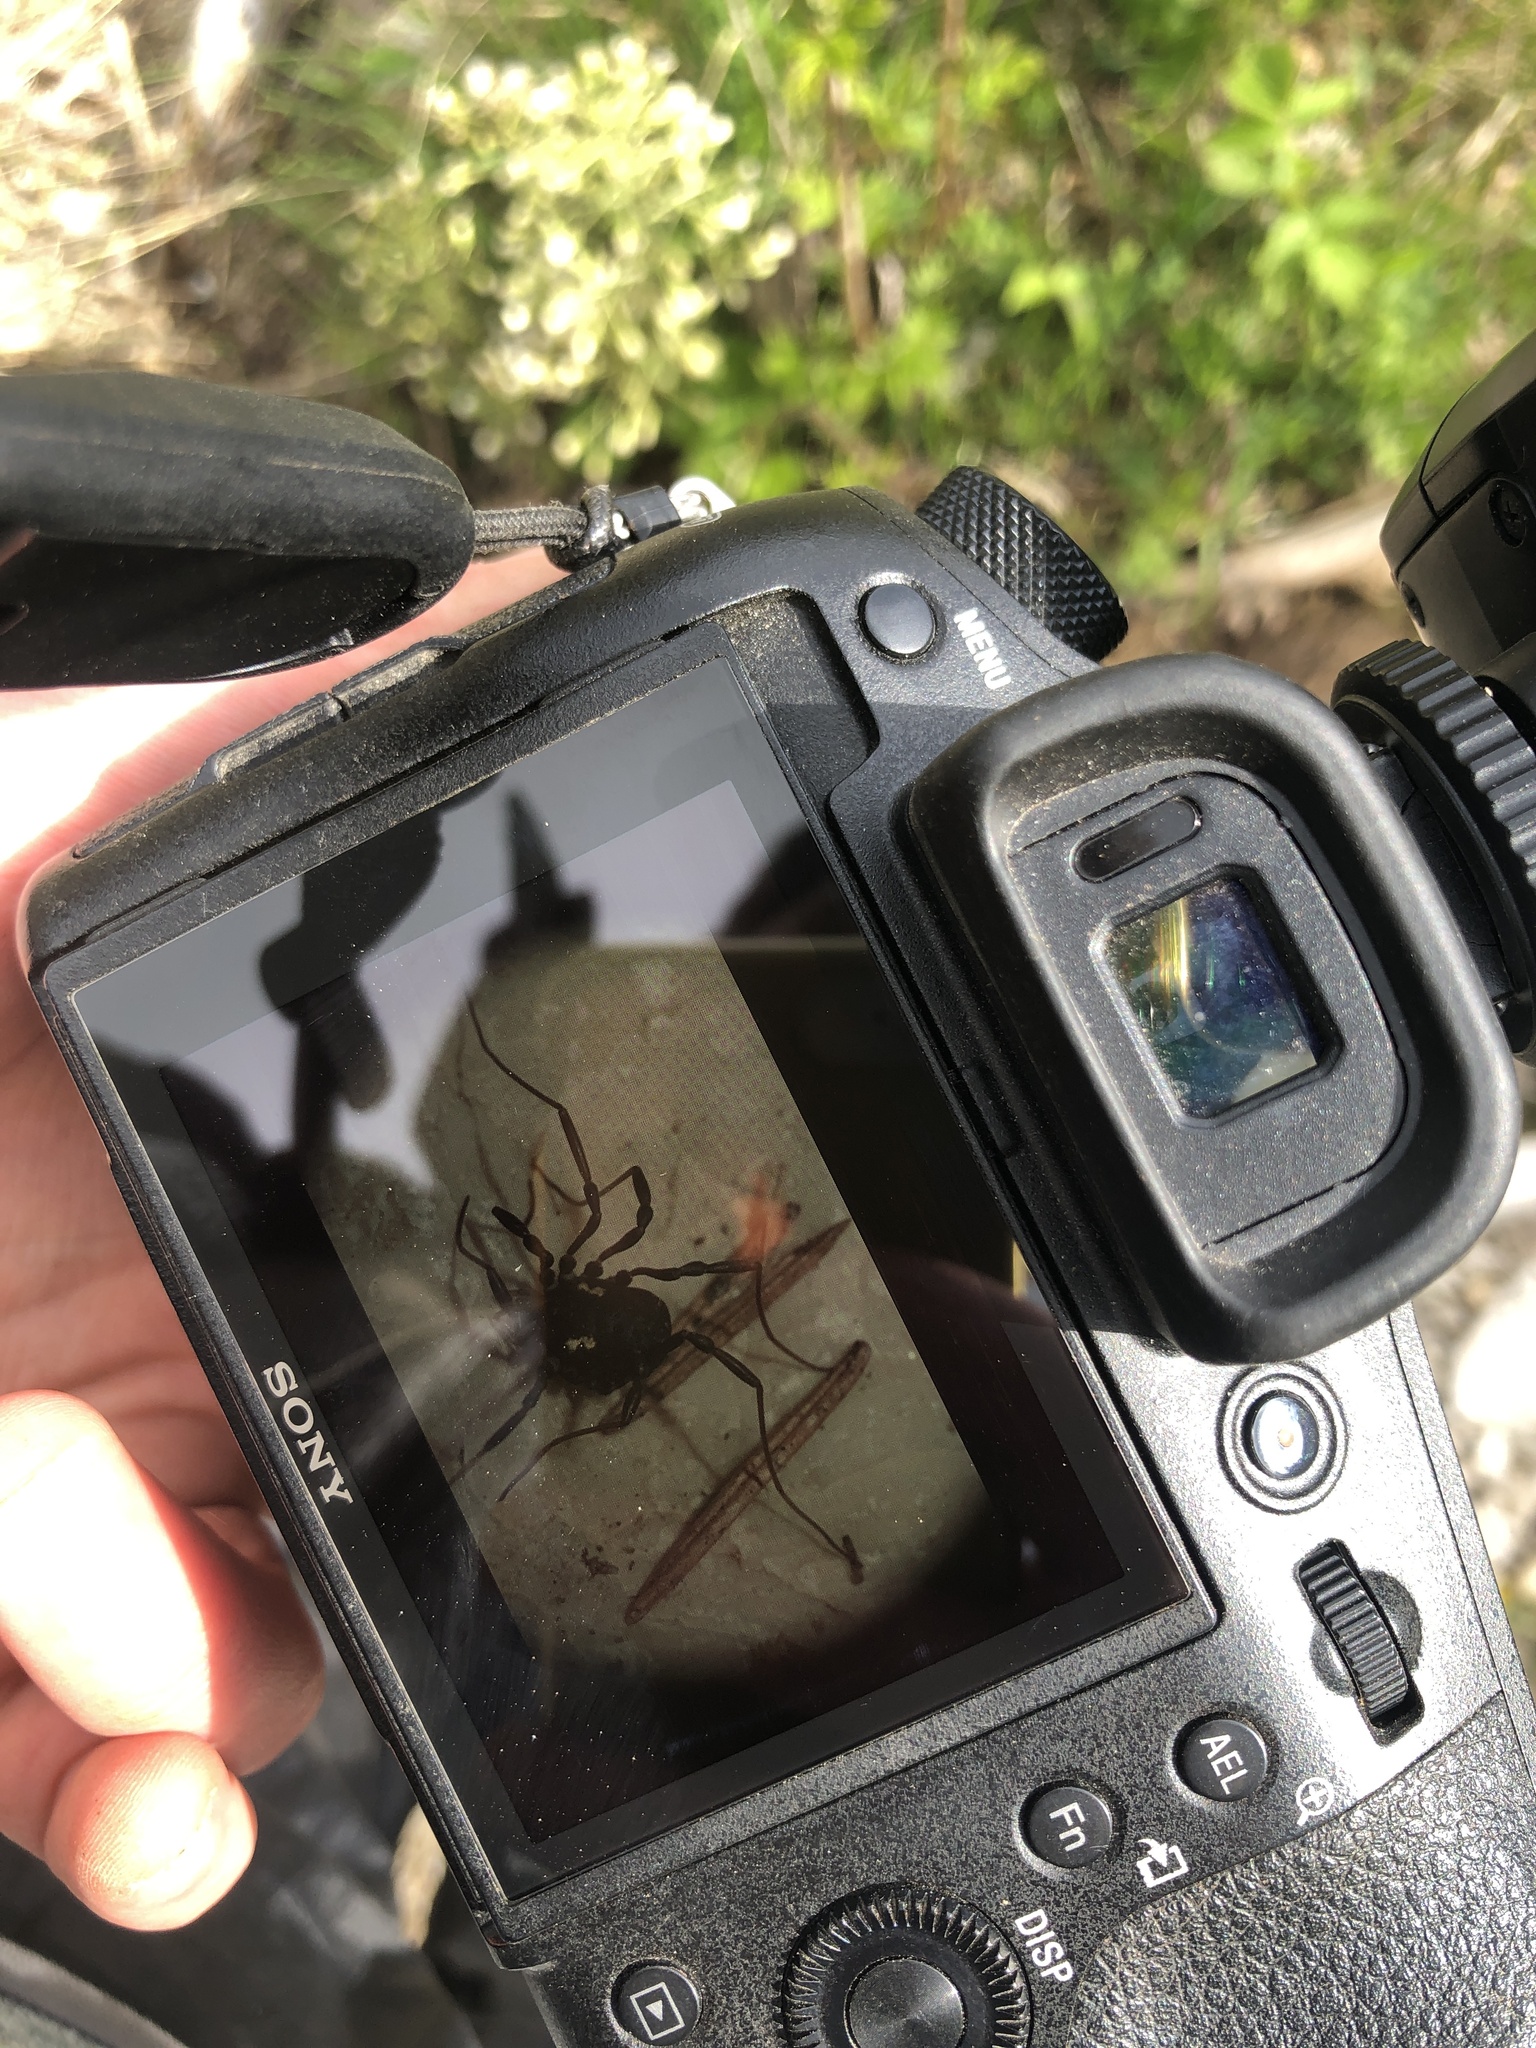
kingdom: Animalia
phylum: Arthropoda
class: Arachnida
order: Opiliones
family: Nemastomatidae
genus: Paranemastoma
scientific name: Paranemastoma quadripunctatum
